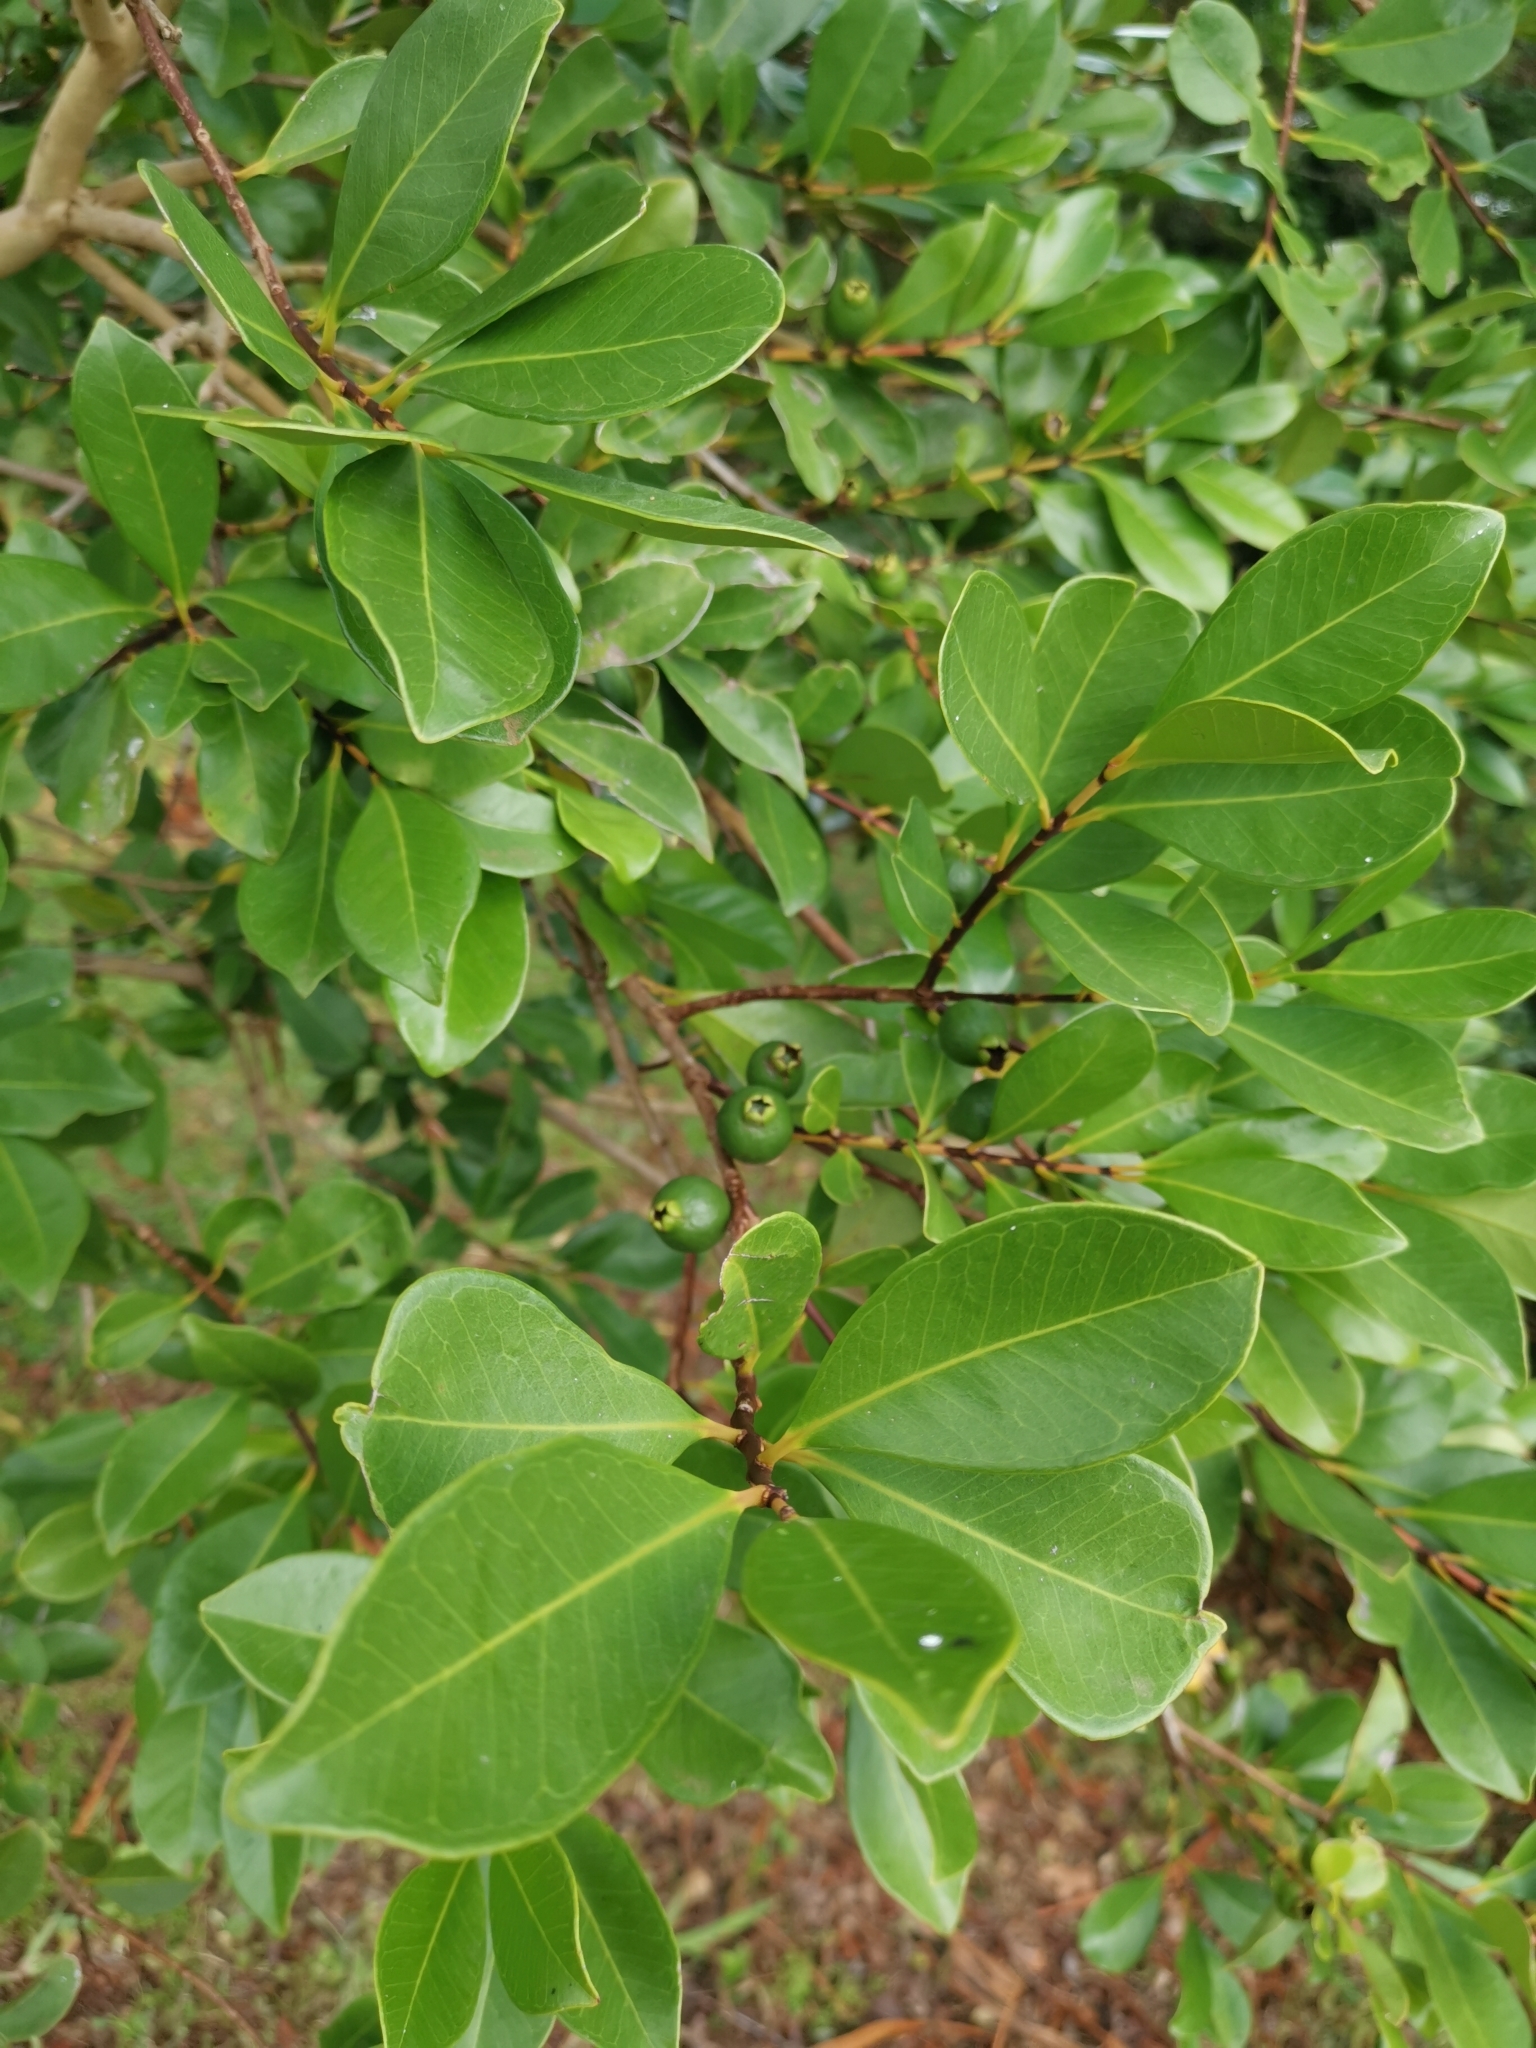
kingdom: Plantae
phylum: Tracheophyta
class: Magnoliopsida
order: Myrtales
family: Myrtaceae
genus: Psidium
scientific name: Psidium cattleianum
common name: Strawberry guava
